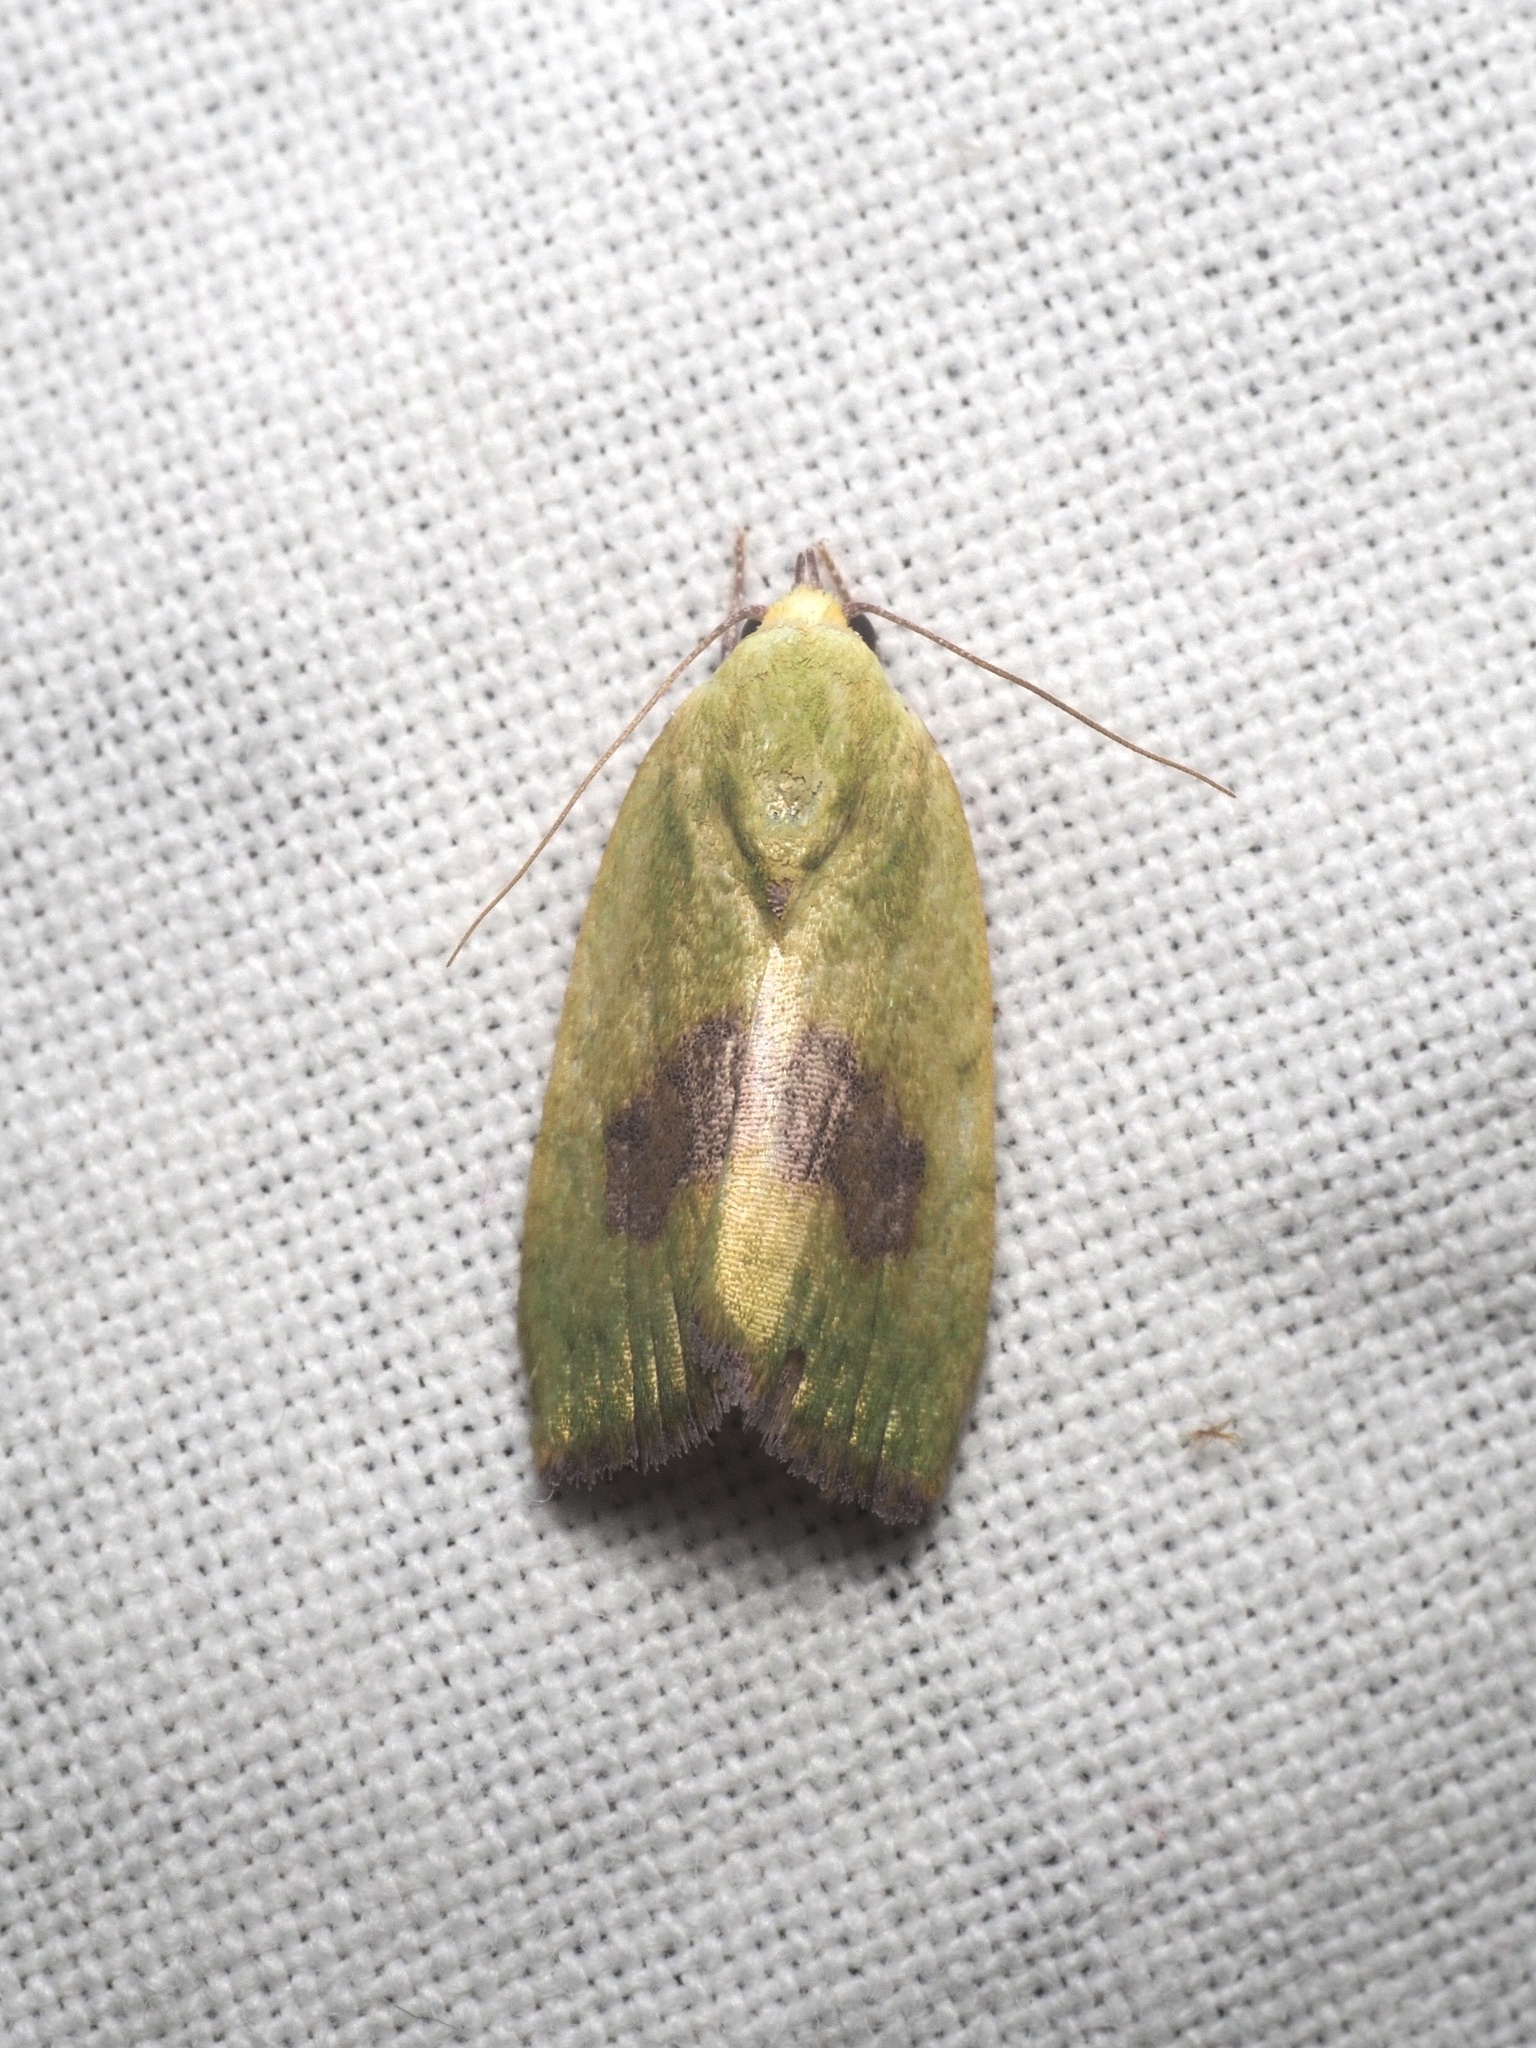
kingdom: Animalia
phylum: Arthropoda
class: Insecta
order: Lepidoptera
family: Nolidae
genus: Earias
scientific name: Earias biplaga
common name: Spiny bollworm
